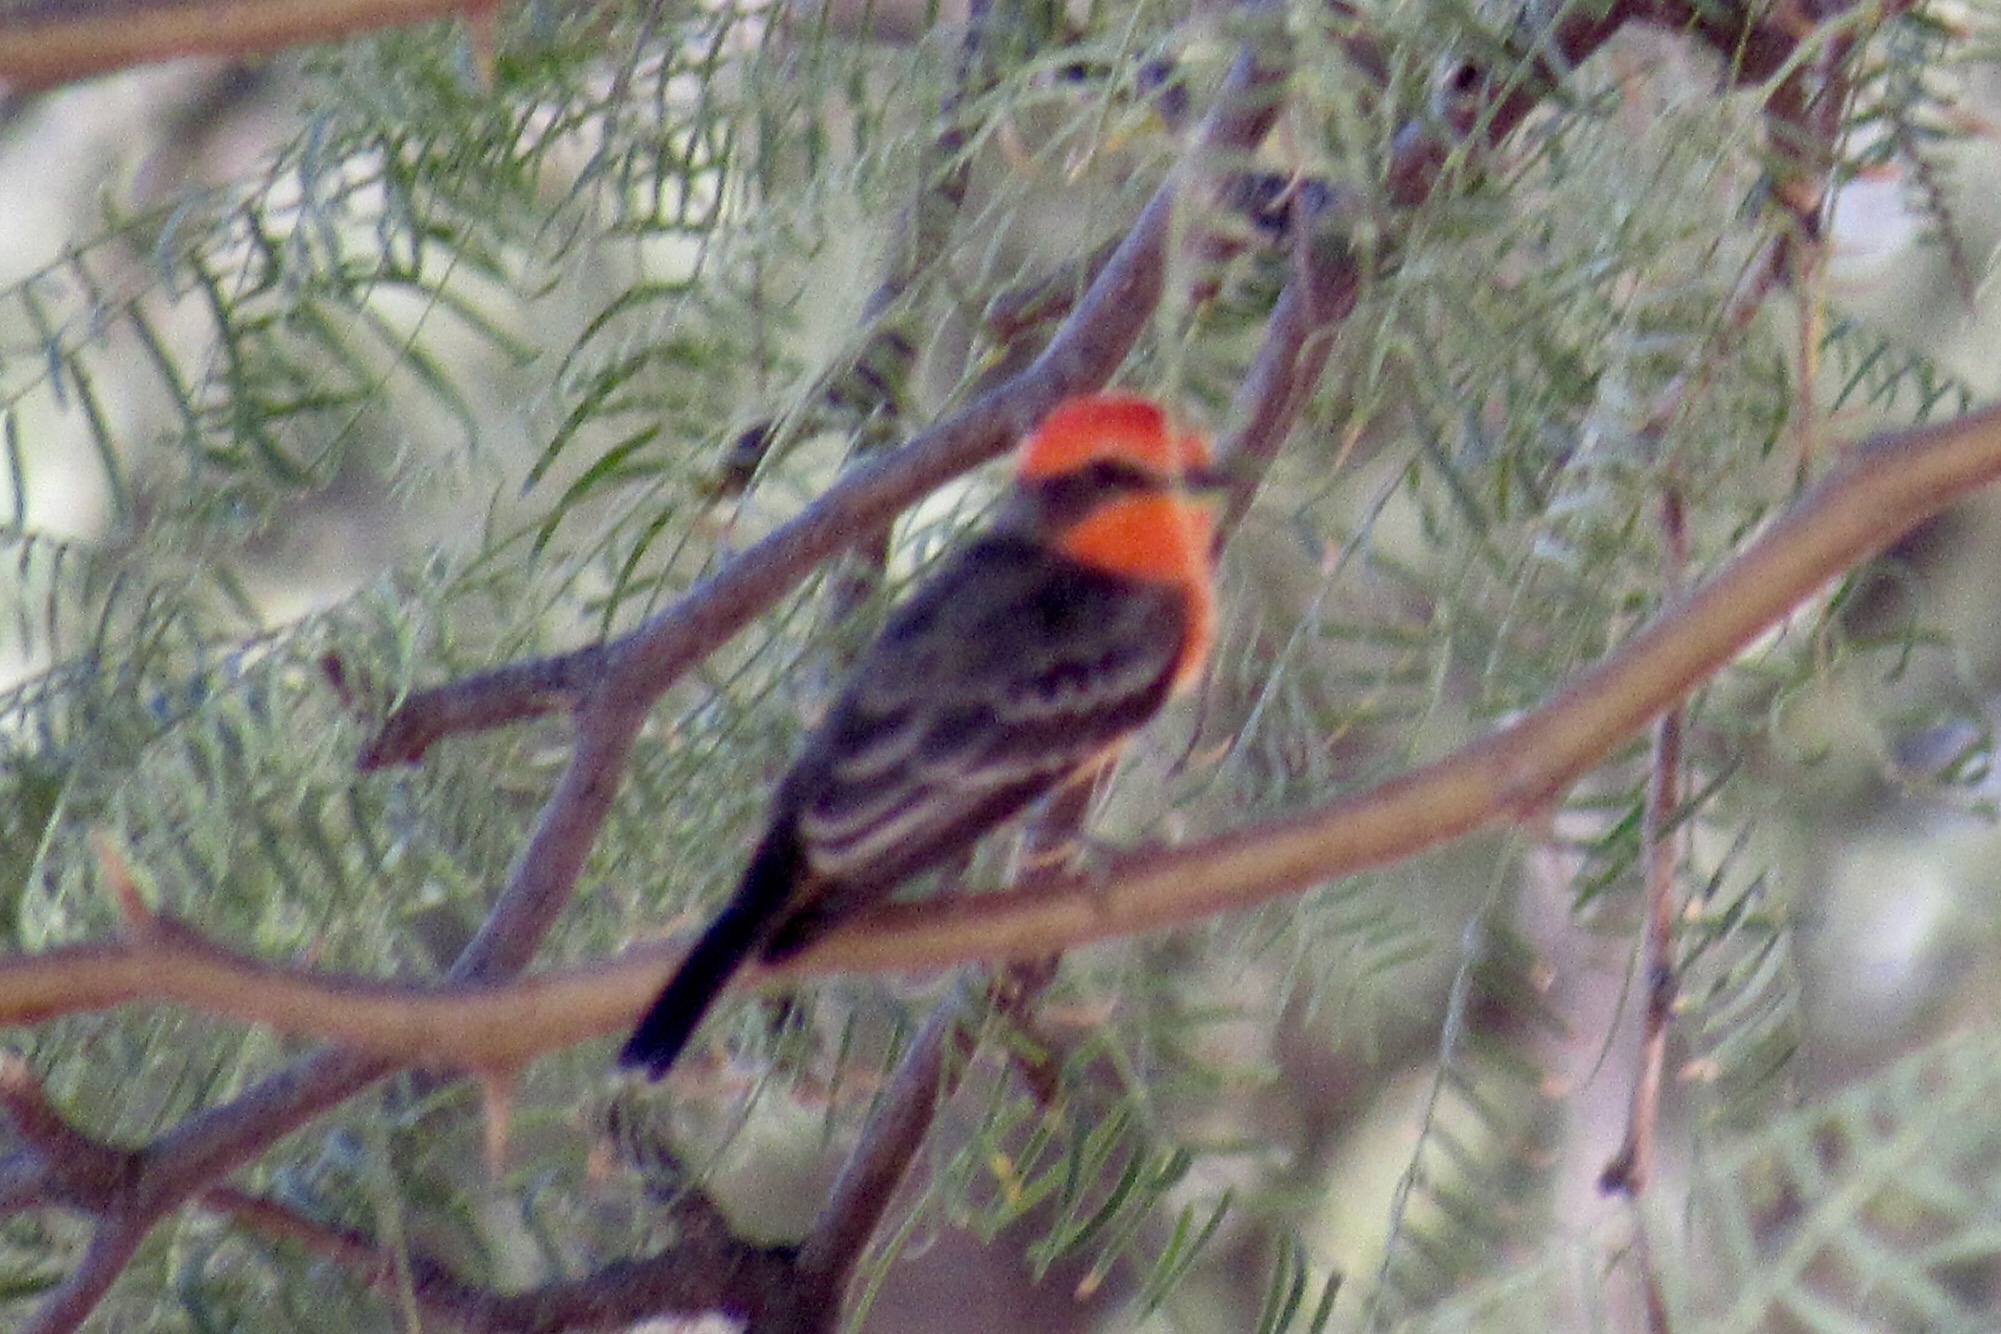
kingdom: Animalia
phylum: Chordata
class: Aves
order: Passeriformes
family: Tyrannidae
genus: Pyrocephalus
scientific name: Pyrocephalus rubinus
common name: Vermilion flycatcher
